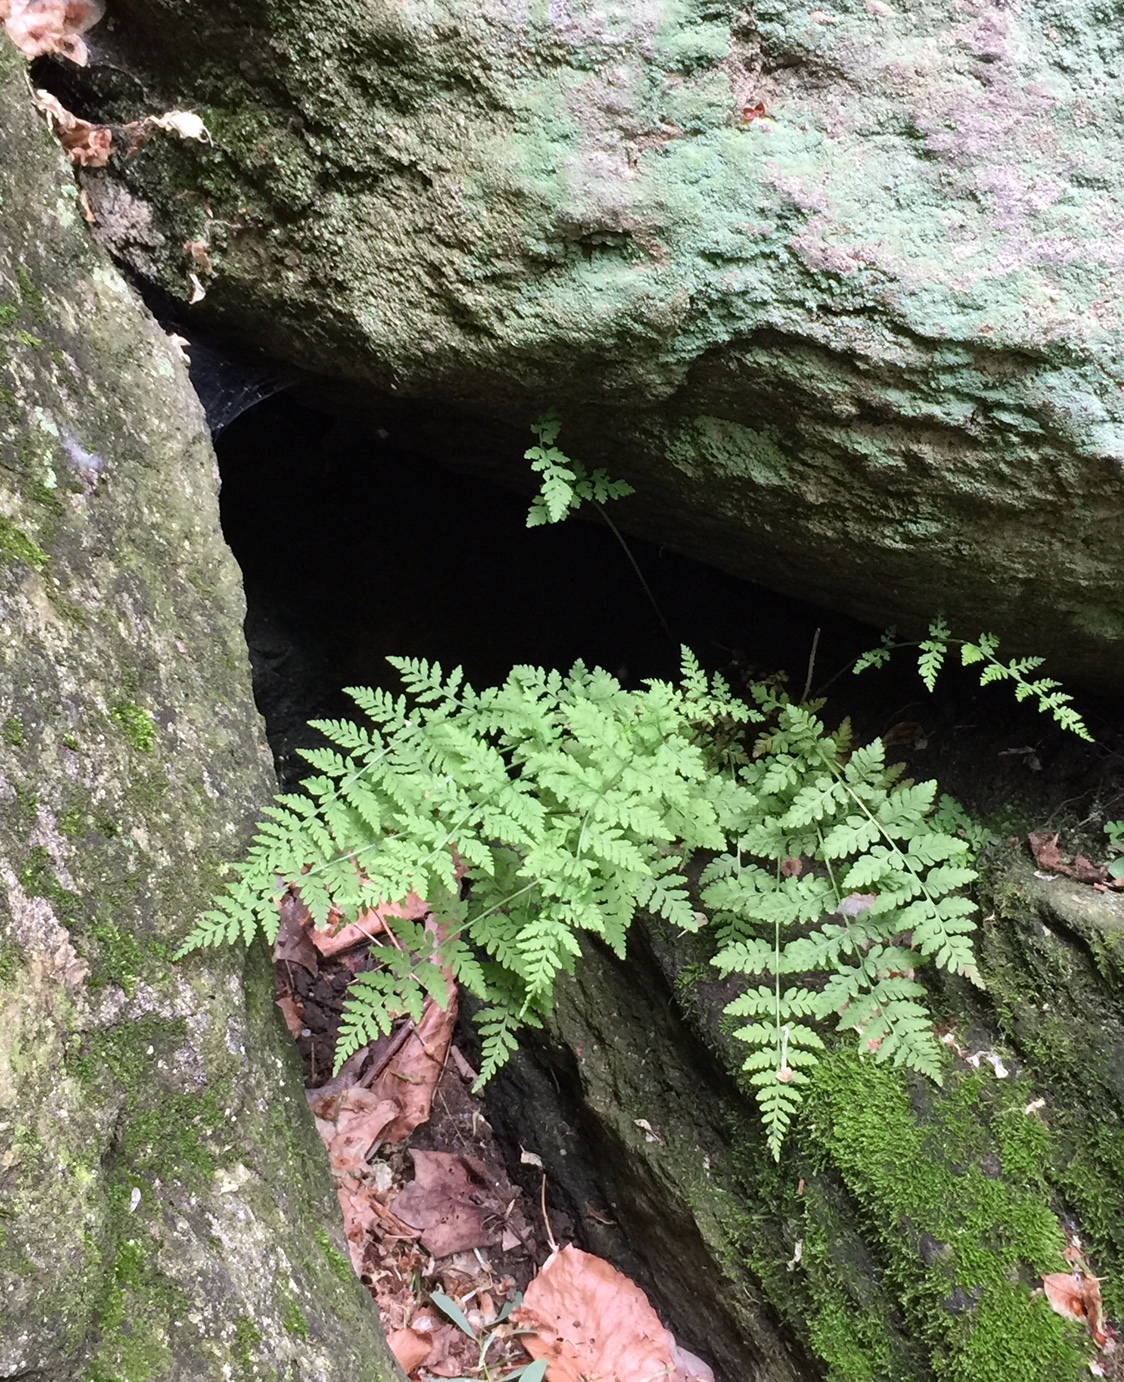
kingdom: Plantae
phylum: Tracheophyta
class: Polypodiopsida
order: Polypodiales
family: Woodsiaceae
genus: Physematium
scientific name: Physematium obtusum
